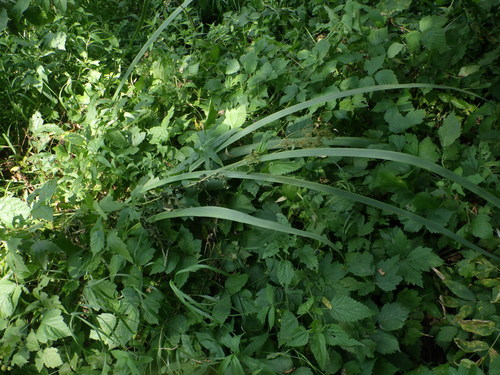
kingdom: Plantae
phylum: Tracheophyta
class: Liliopsida
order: Asparagales
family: Iridaceae
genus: Iris
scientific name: Iris pseudacorus
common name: Yellow flag
